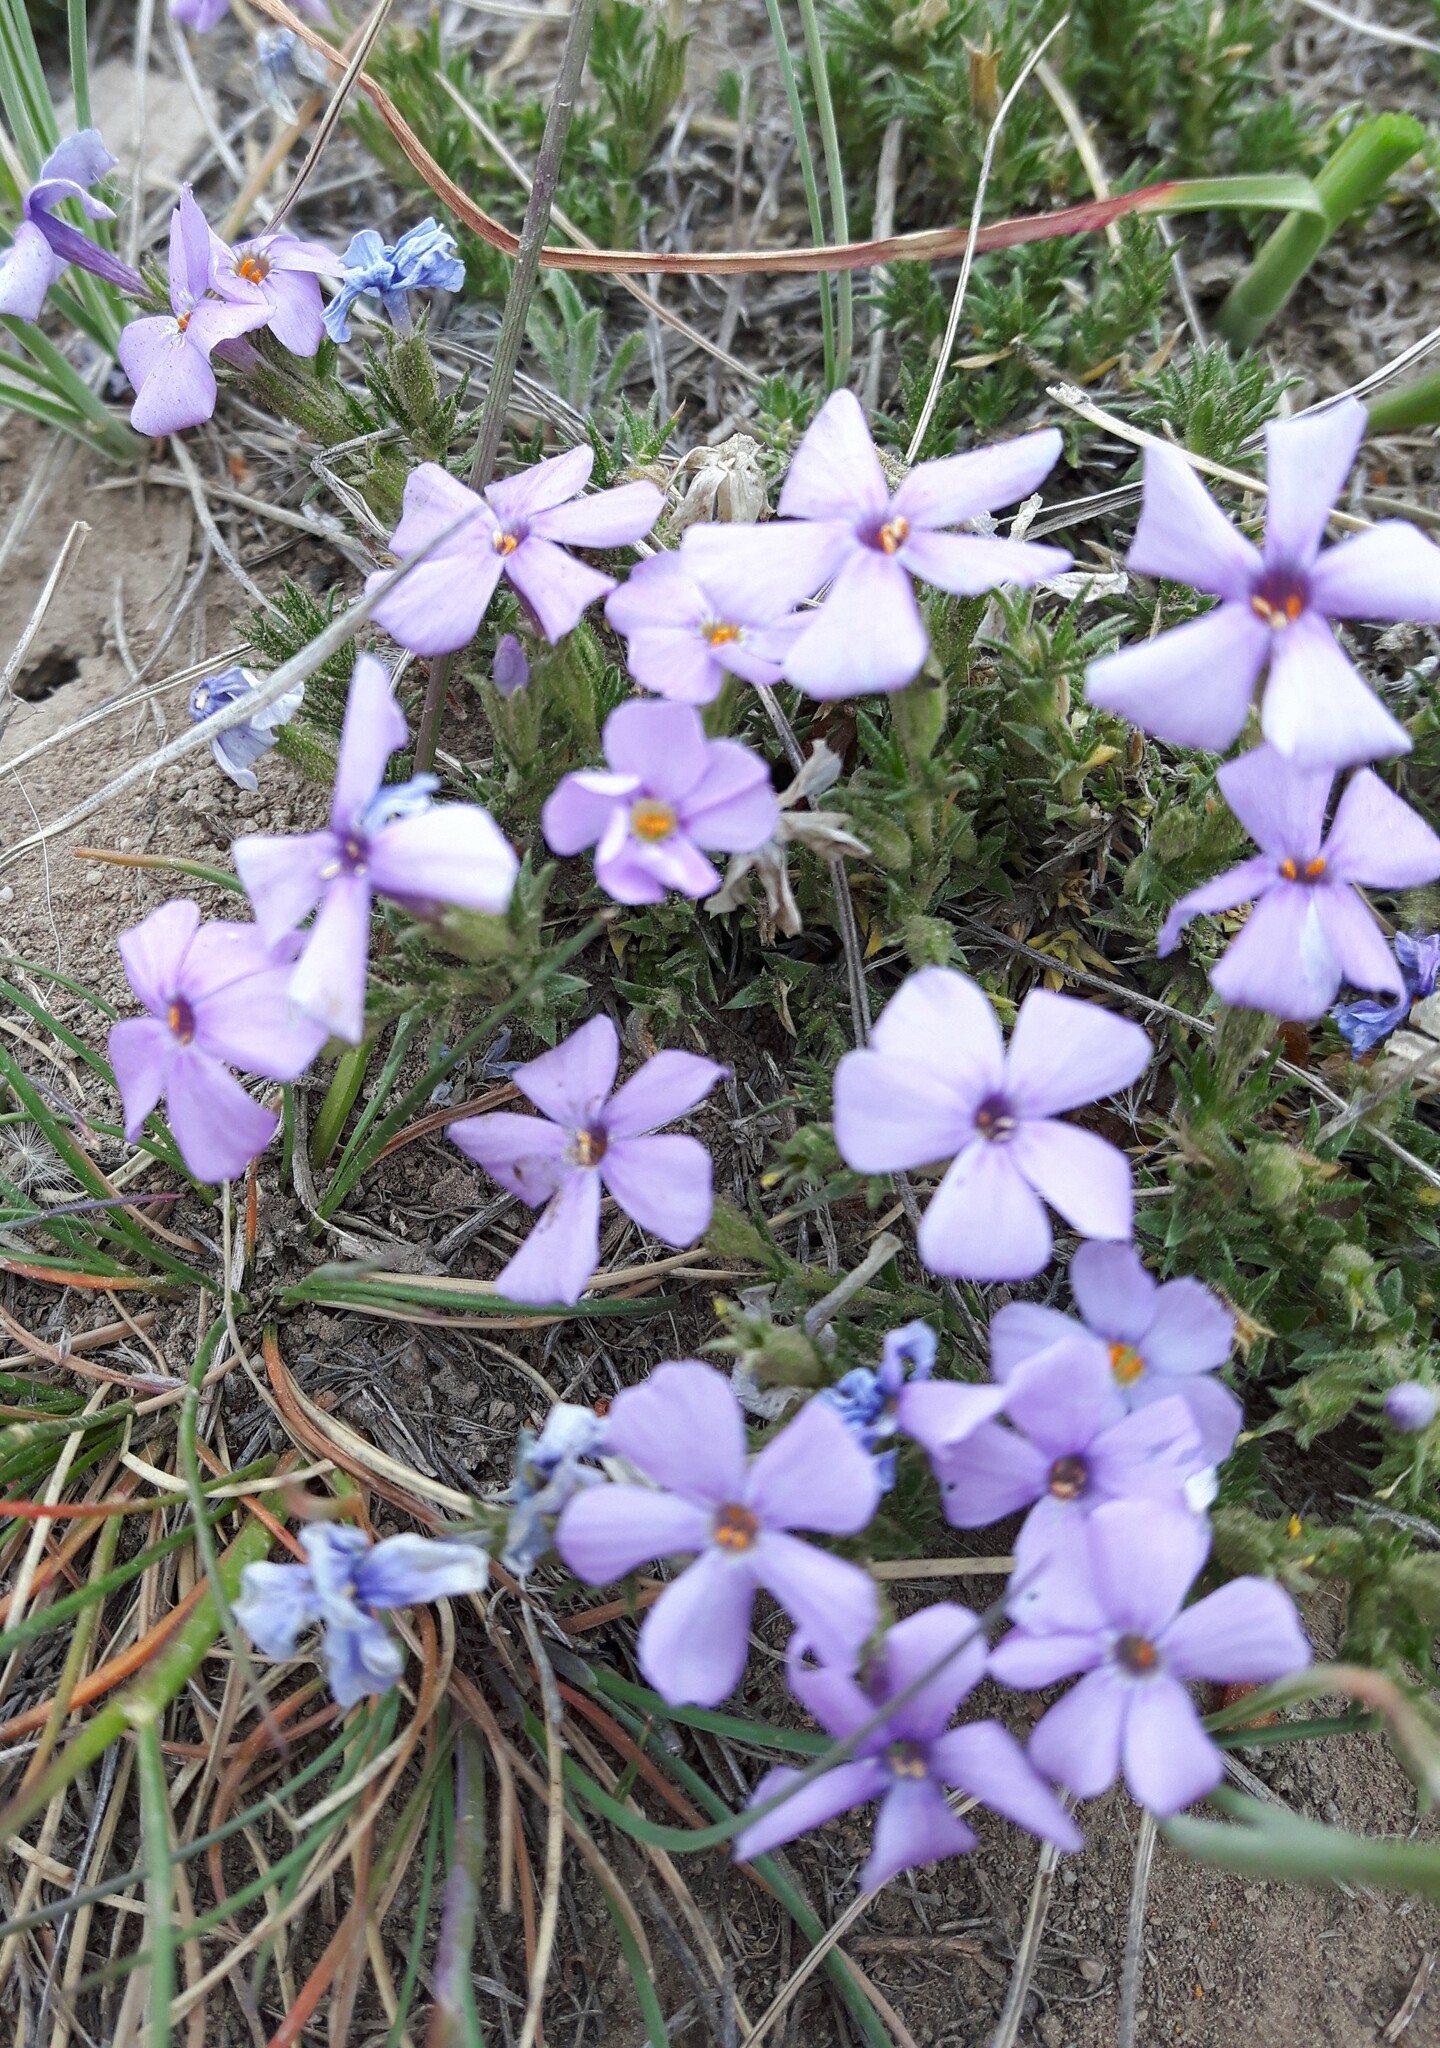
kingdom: Plantae
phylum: Tracheophyta
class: Magnoliopsida
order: Ericales
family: Polemoniaceae
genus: Phlox
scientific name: Phlox caespitosa
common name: Cushion phlox
